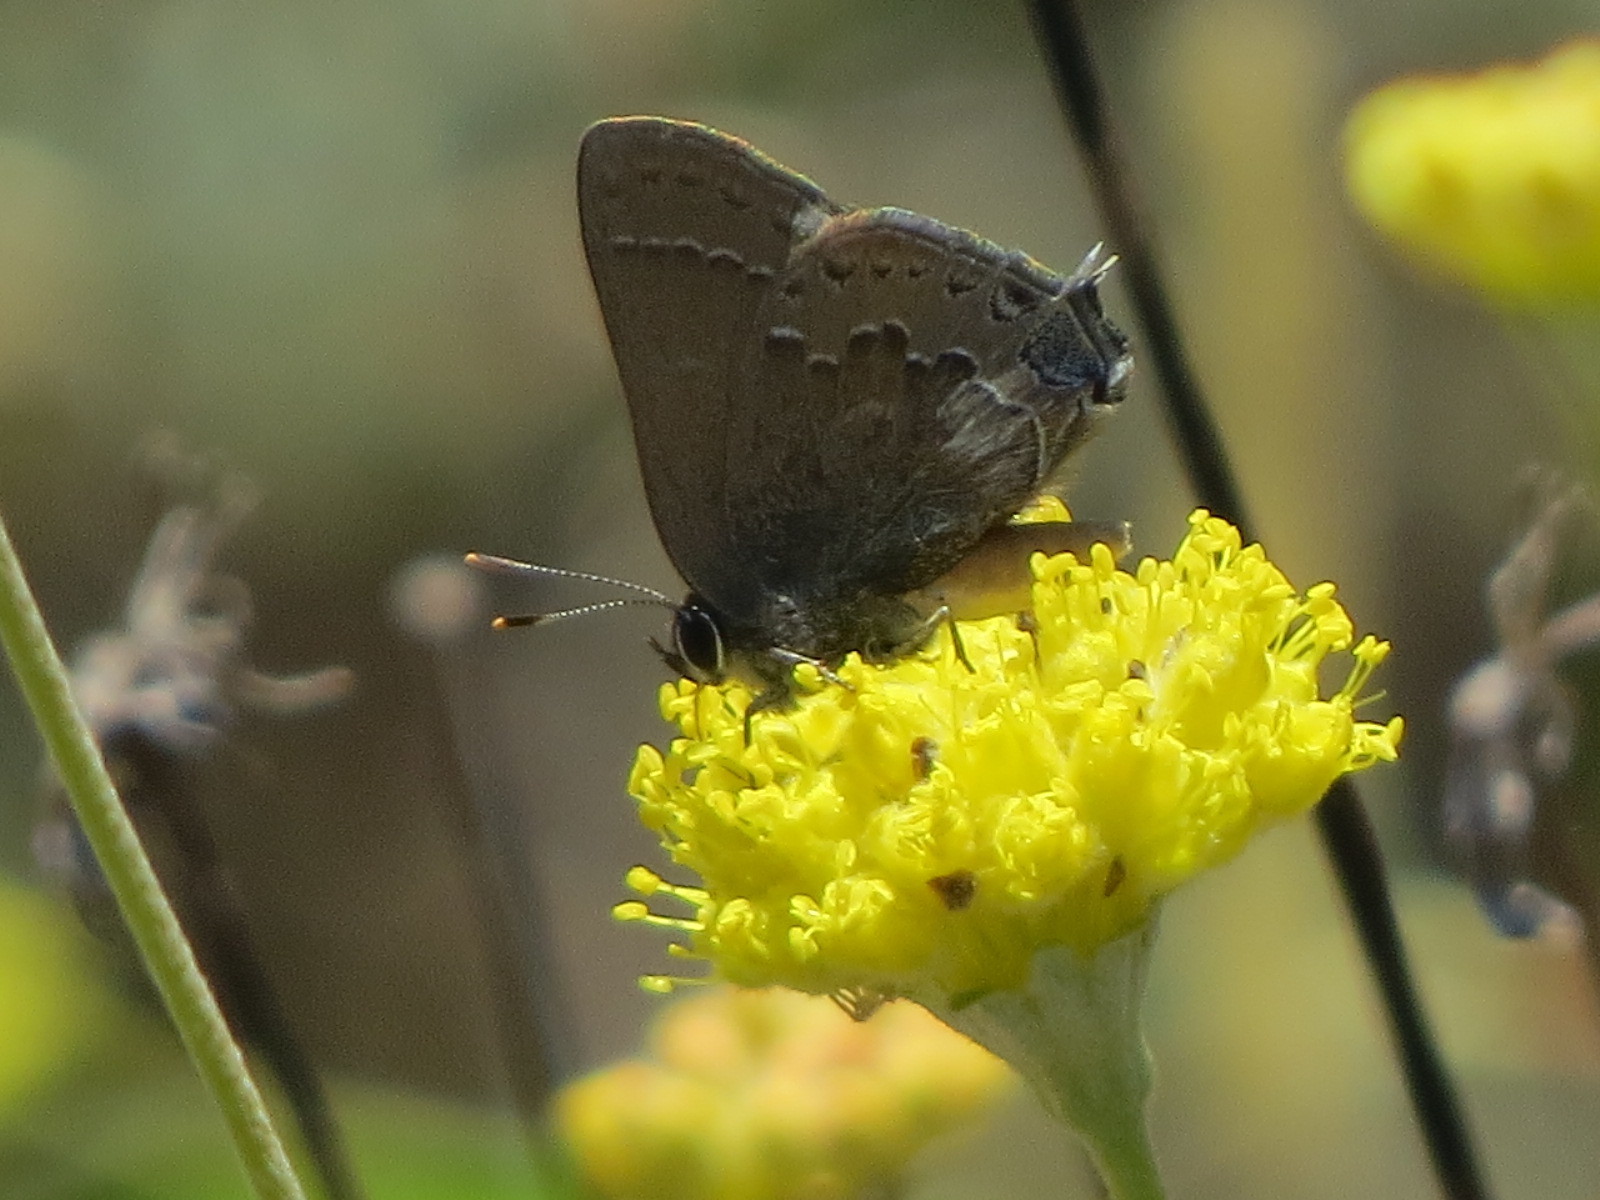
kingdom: Animalia
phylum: Arthropoda
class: Insecta
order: Lepidoptera
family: Lycaenidae
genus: Strymon
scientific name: Strymon saepium
